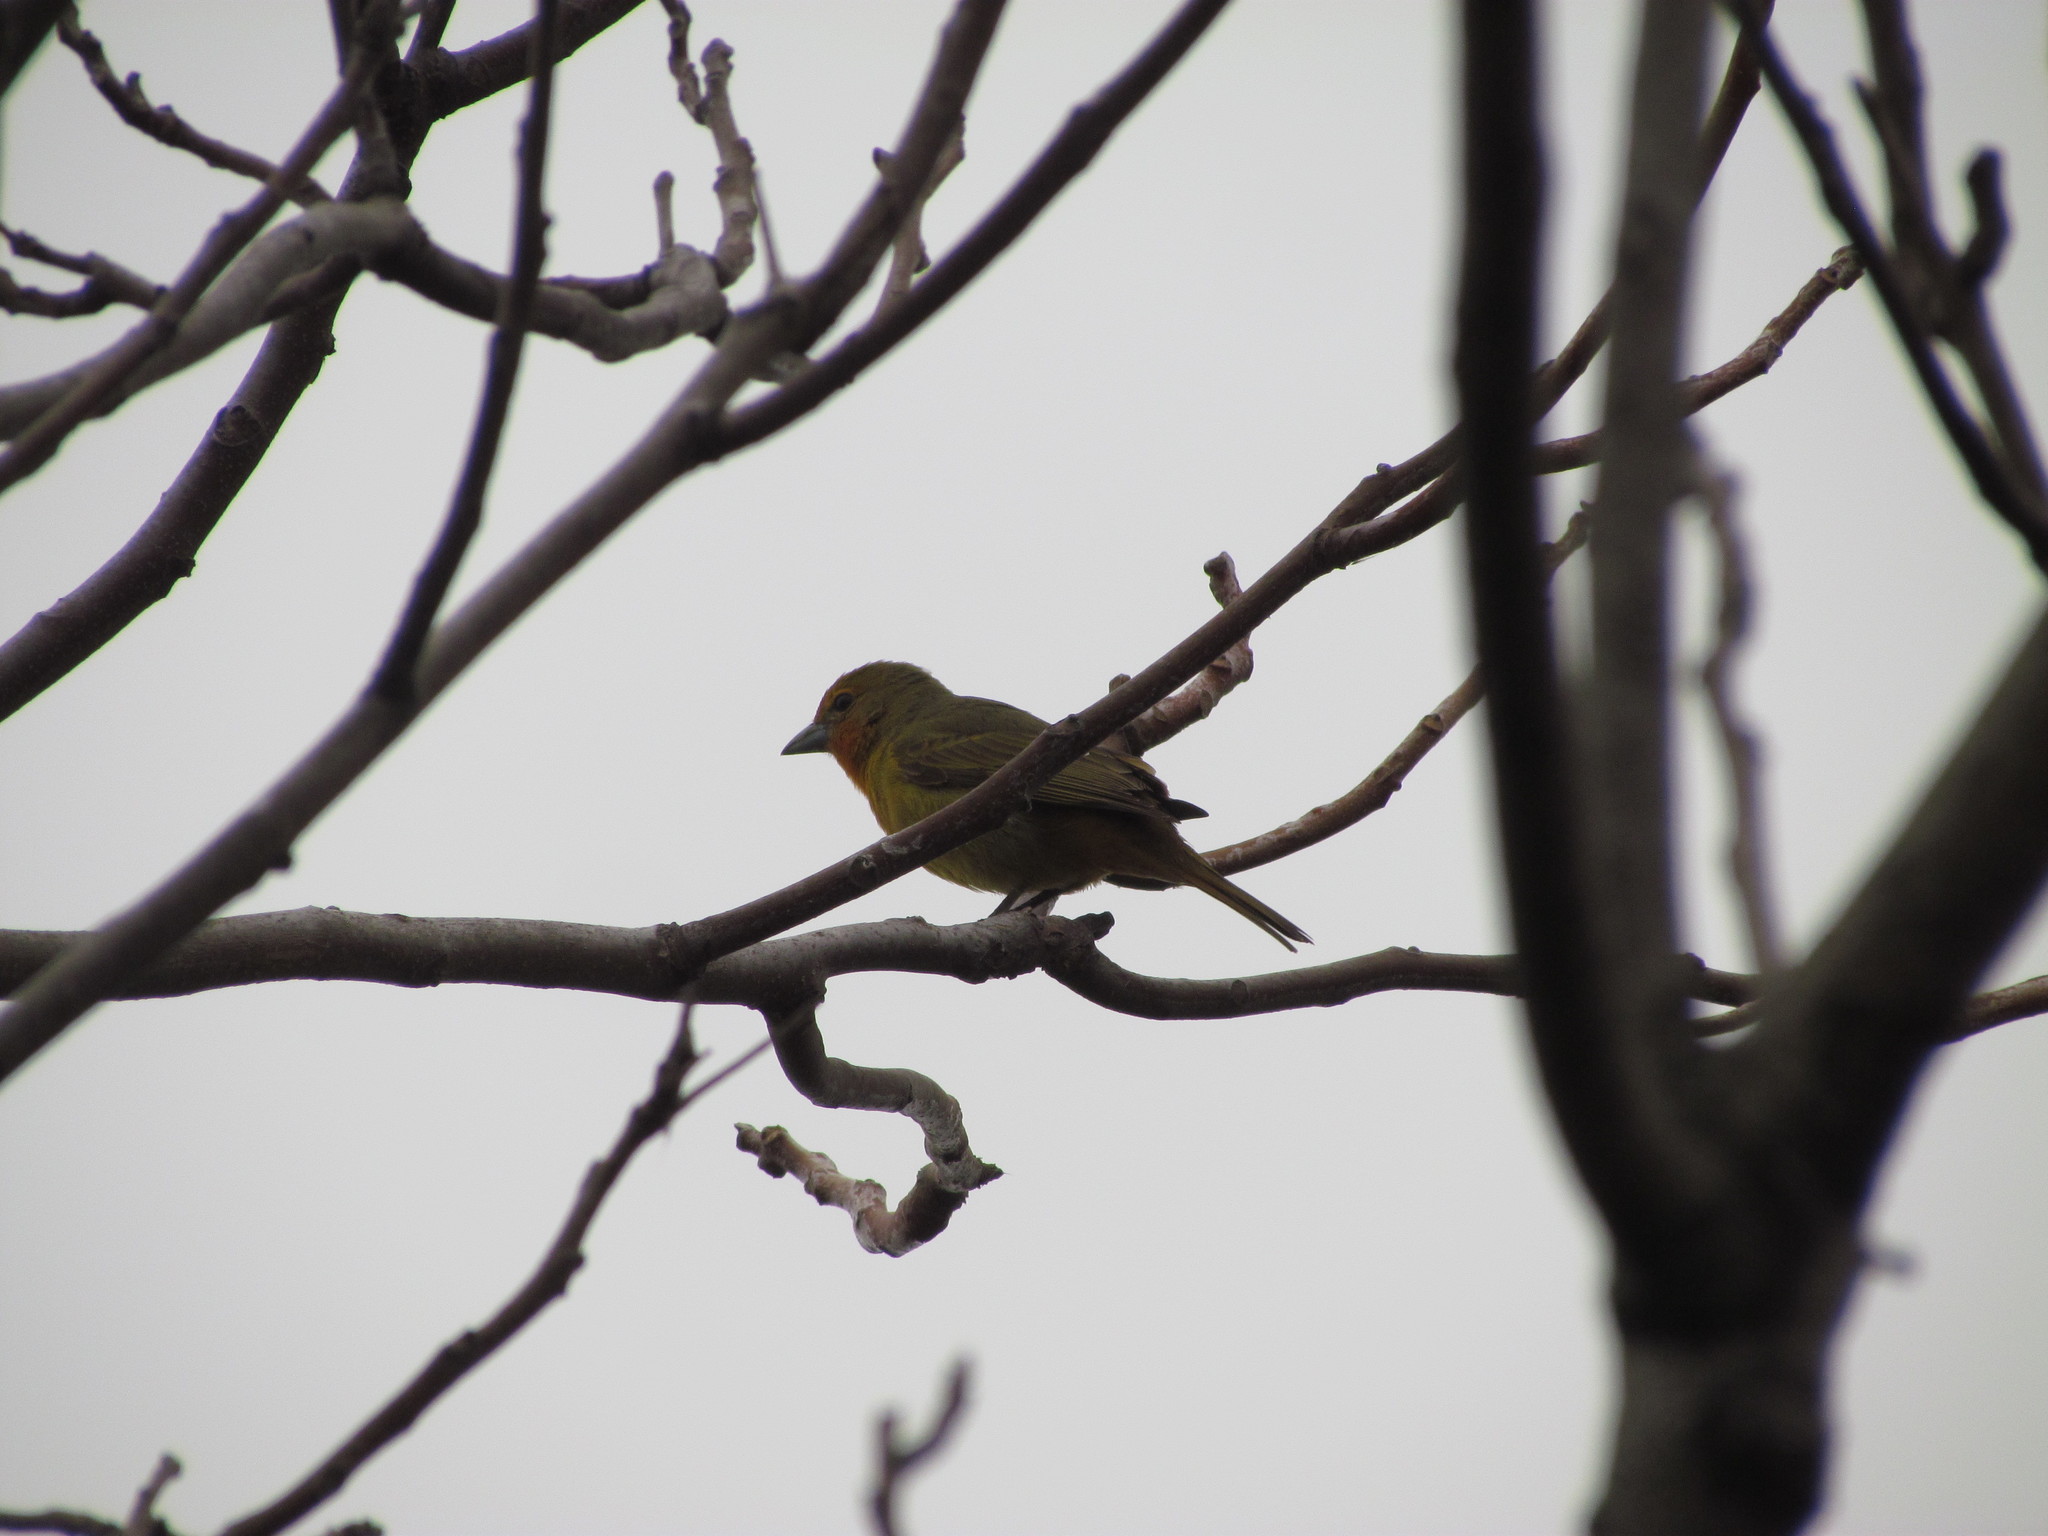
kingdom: Animalia
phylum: Chordata
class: Aves
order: Passeriformes
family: Cardinalidae
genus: Piranga
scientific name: Piranga flava
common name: Red tanager
